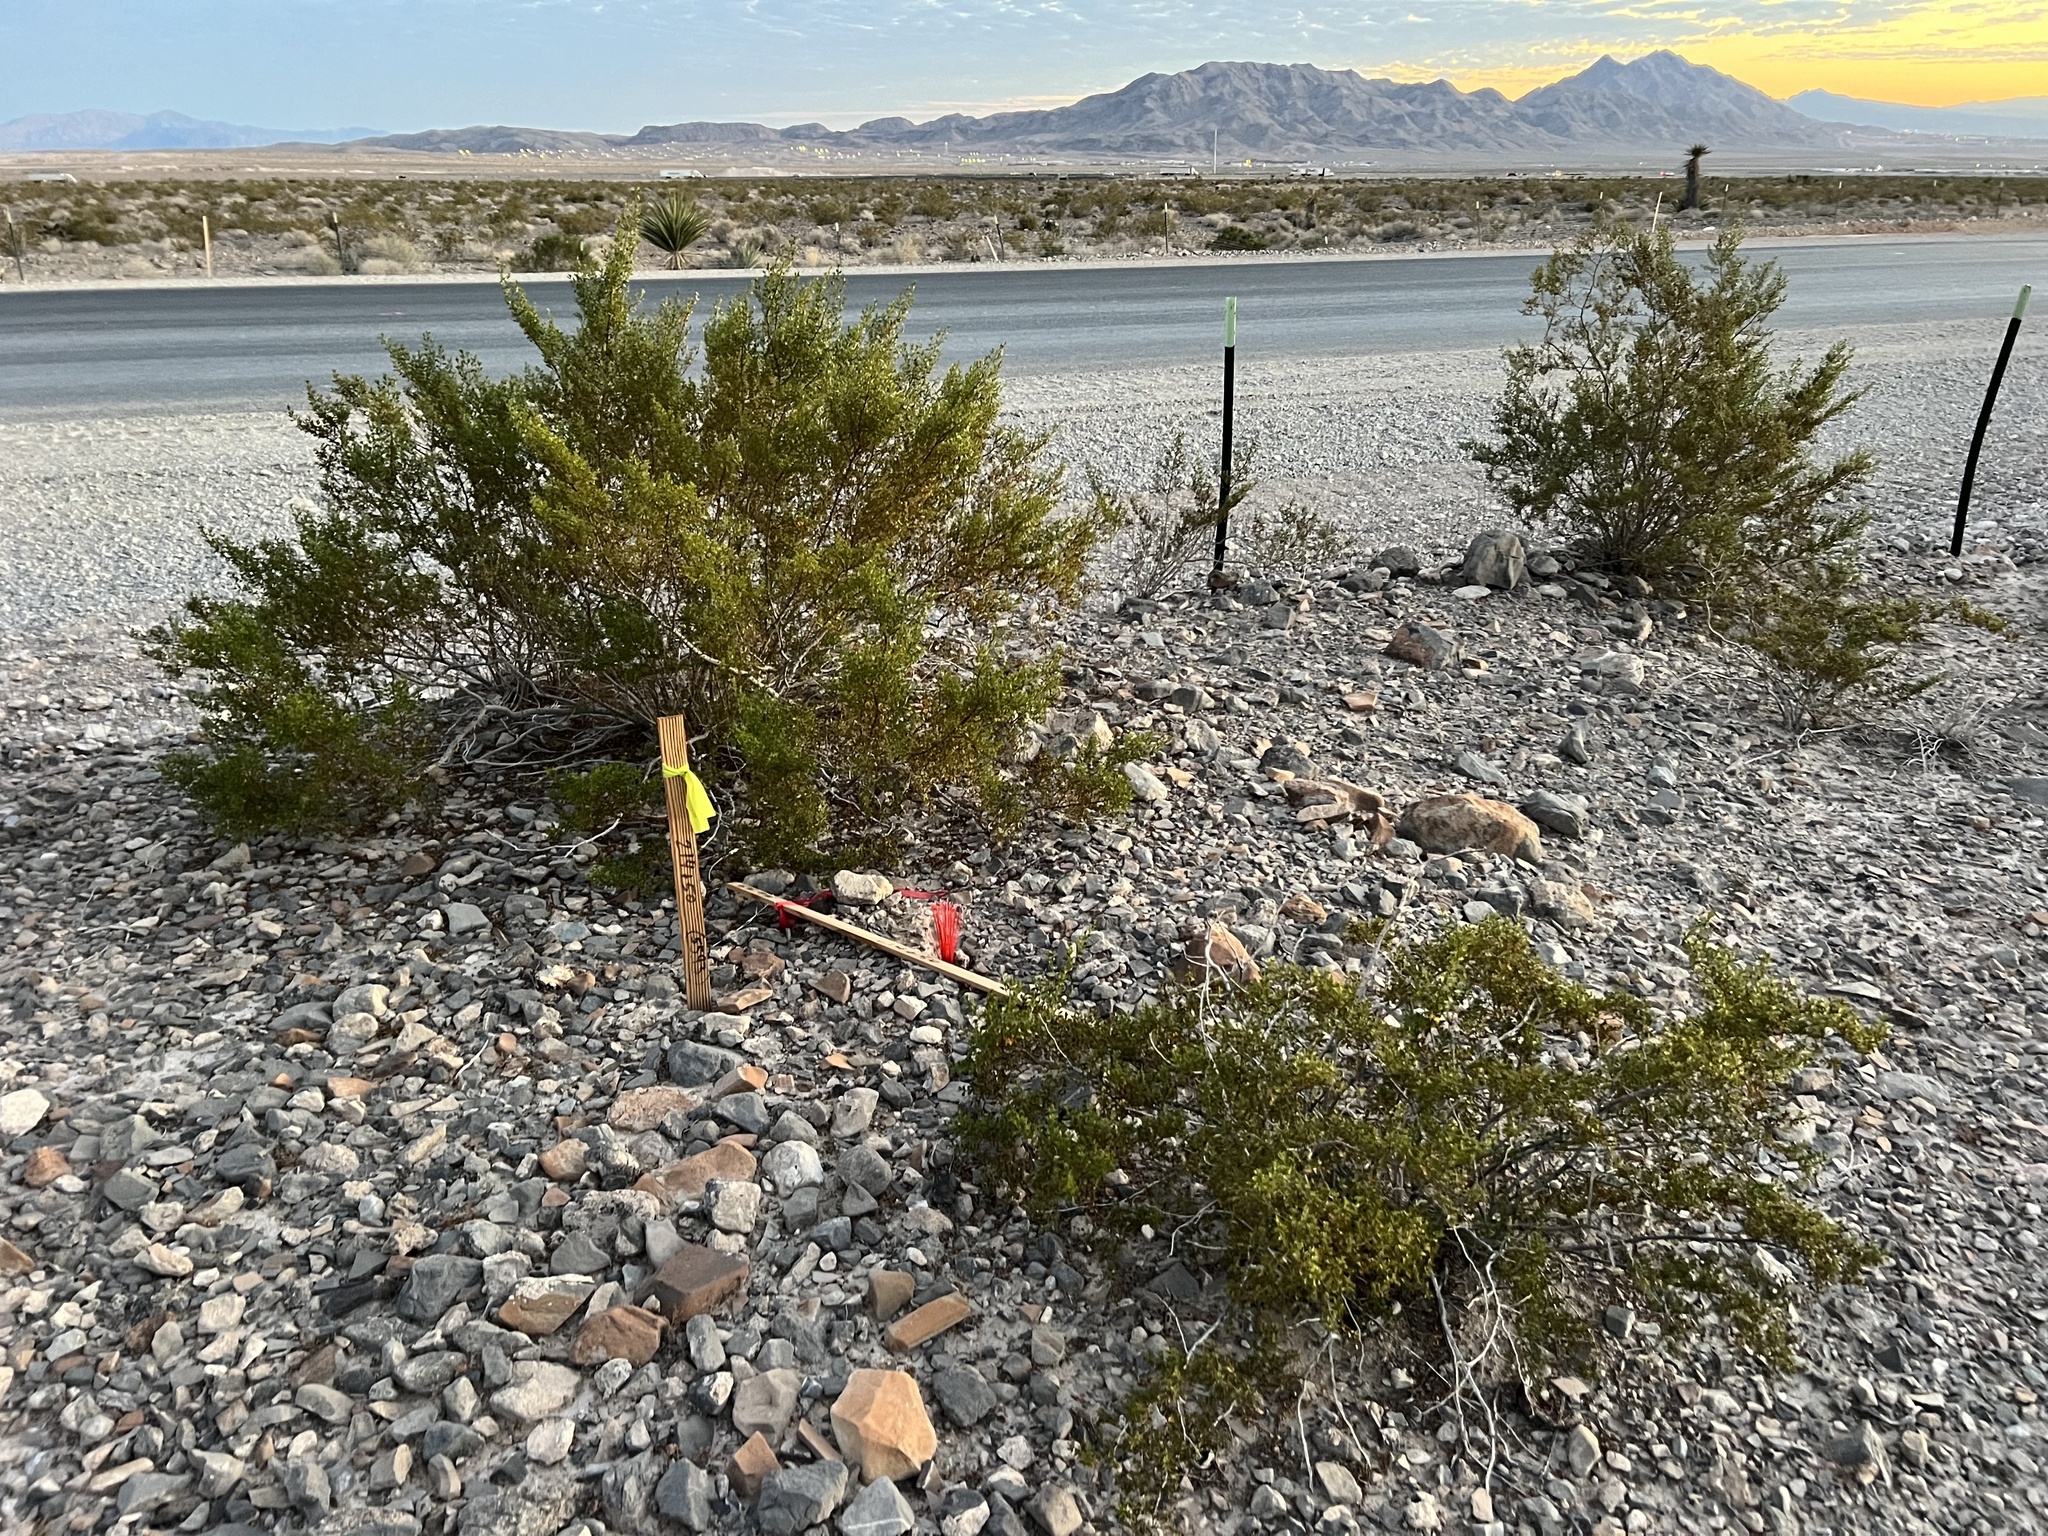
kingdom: Plantae
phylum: Tracheophyta
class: Magnoliopsida
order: Zygophyllales
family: Zygophyllaceae
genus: Larrea
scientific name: Larrea tridentata
